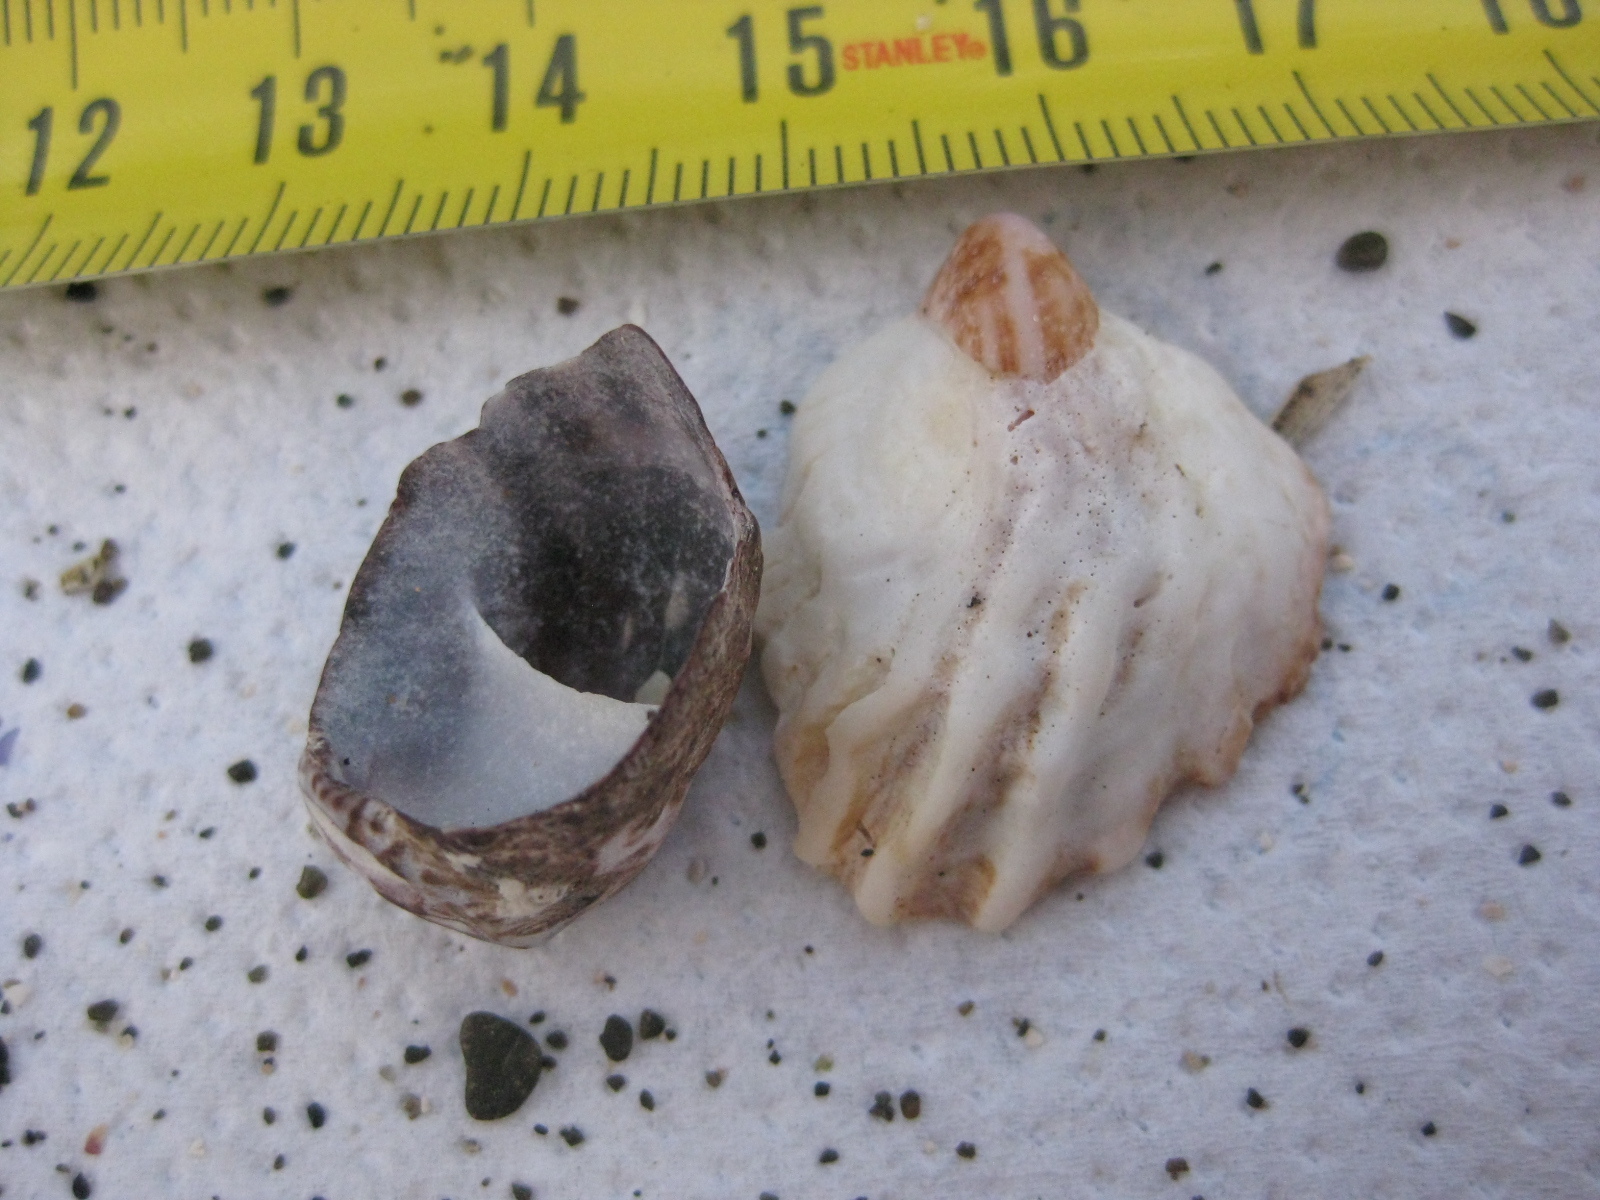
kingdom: Animalia
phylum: Mollusca
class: Gastropoda
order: Littorinimorpha
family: Calyptraeidae
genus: Maoricrypta
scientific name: Maoricrypta costata
